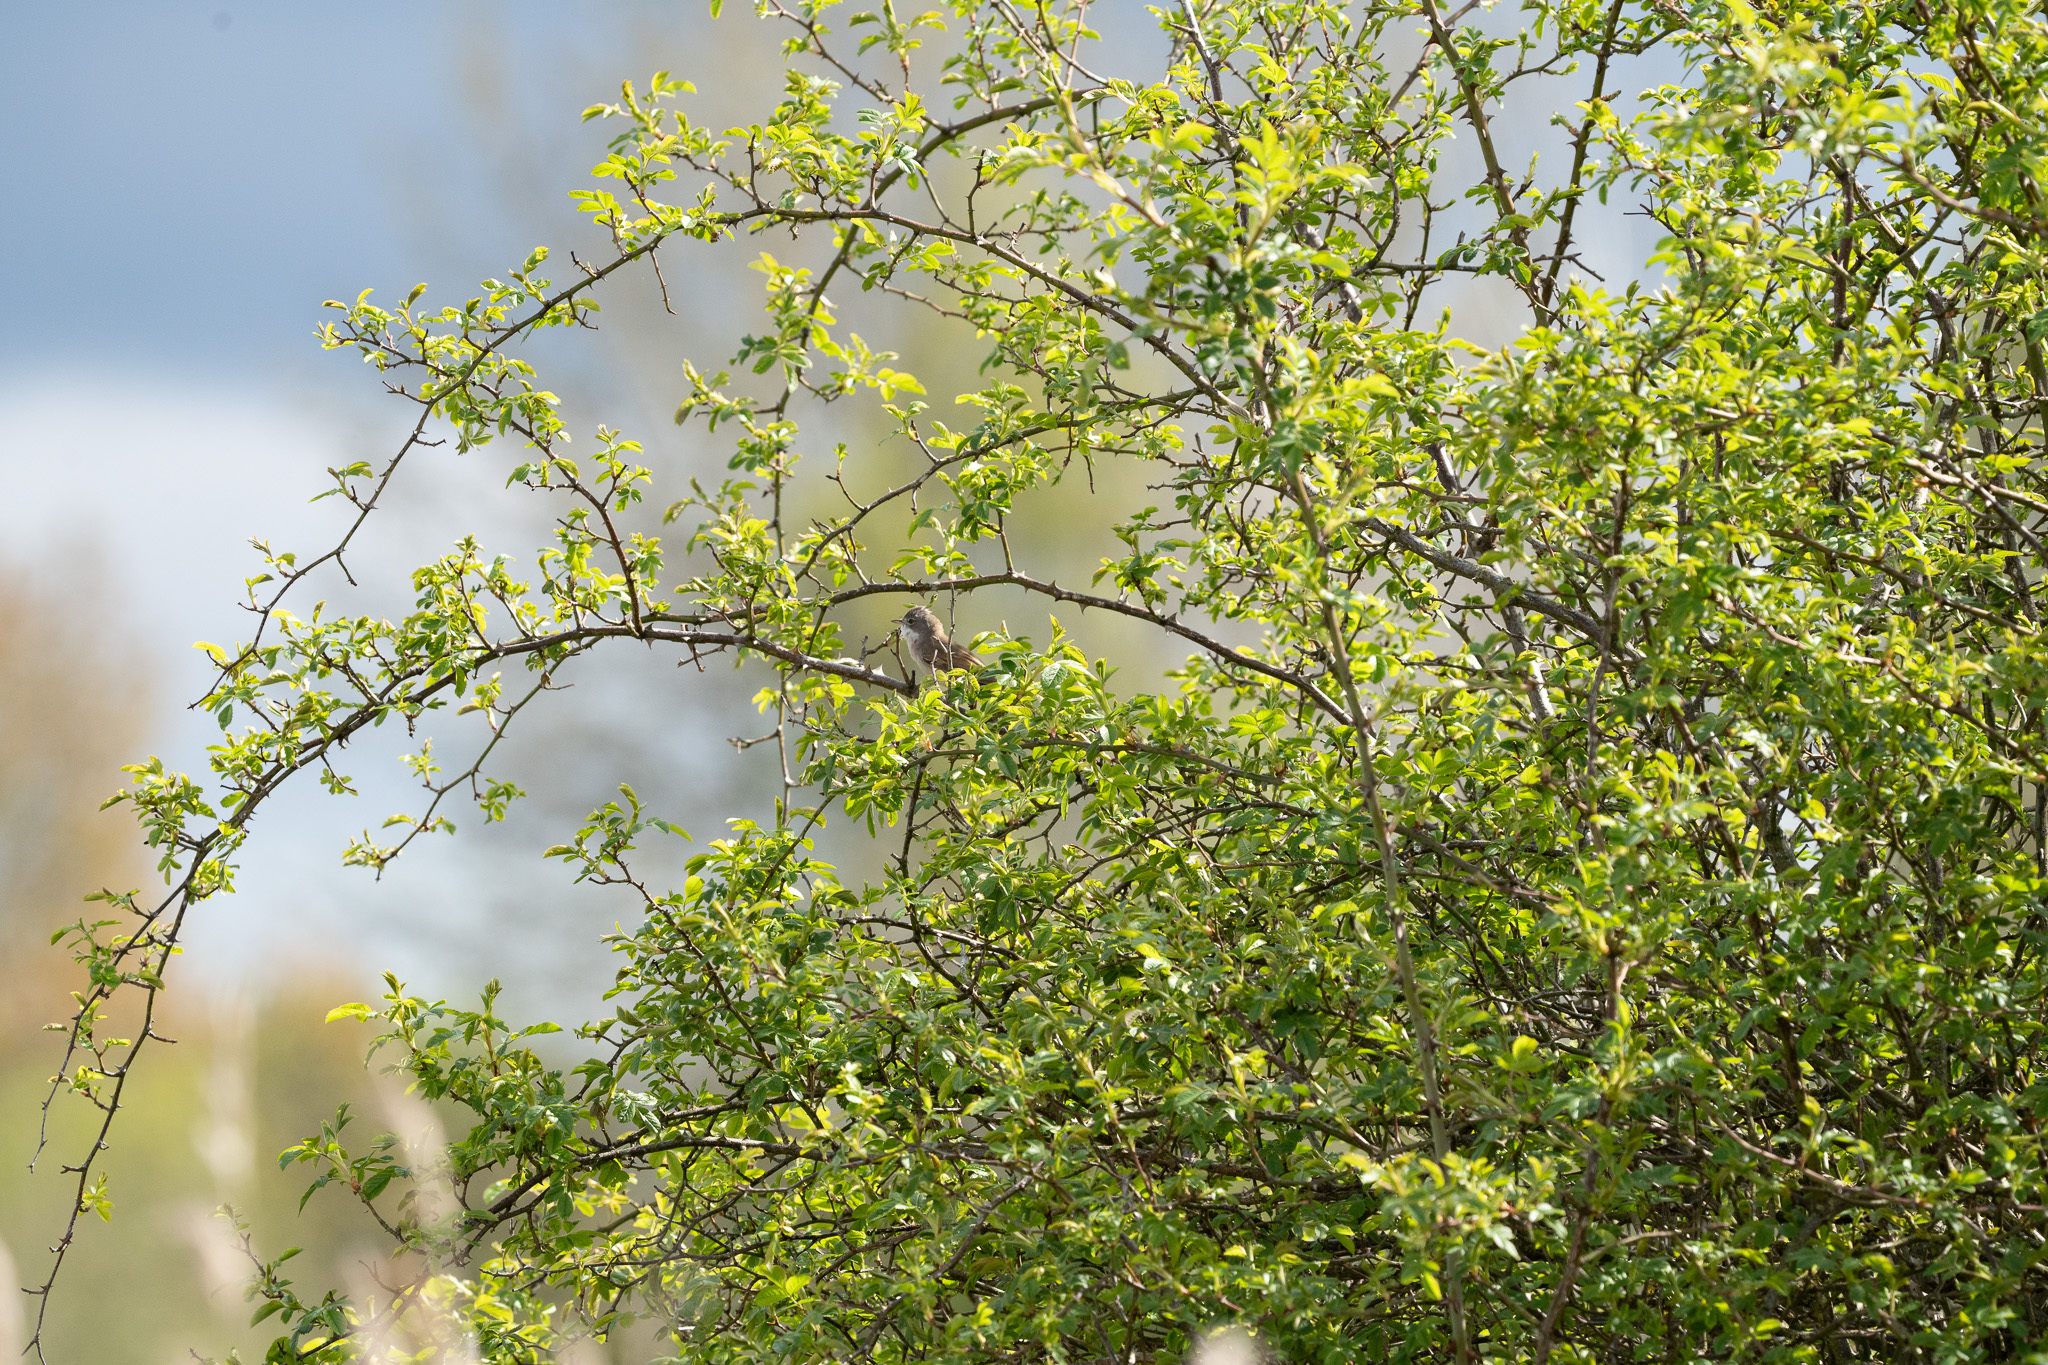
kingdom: Animalia
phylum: Chordata
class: Aves
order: Passeriformes
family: Sylviidae
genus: Sylvia
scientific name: Sylvia communis
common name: Common whitethroat
